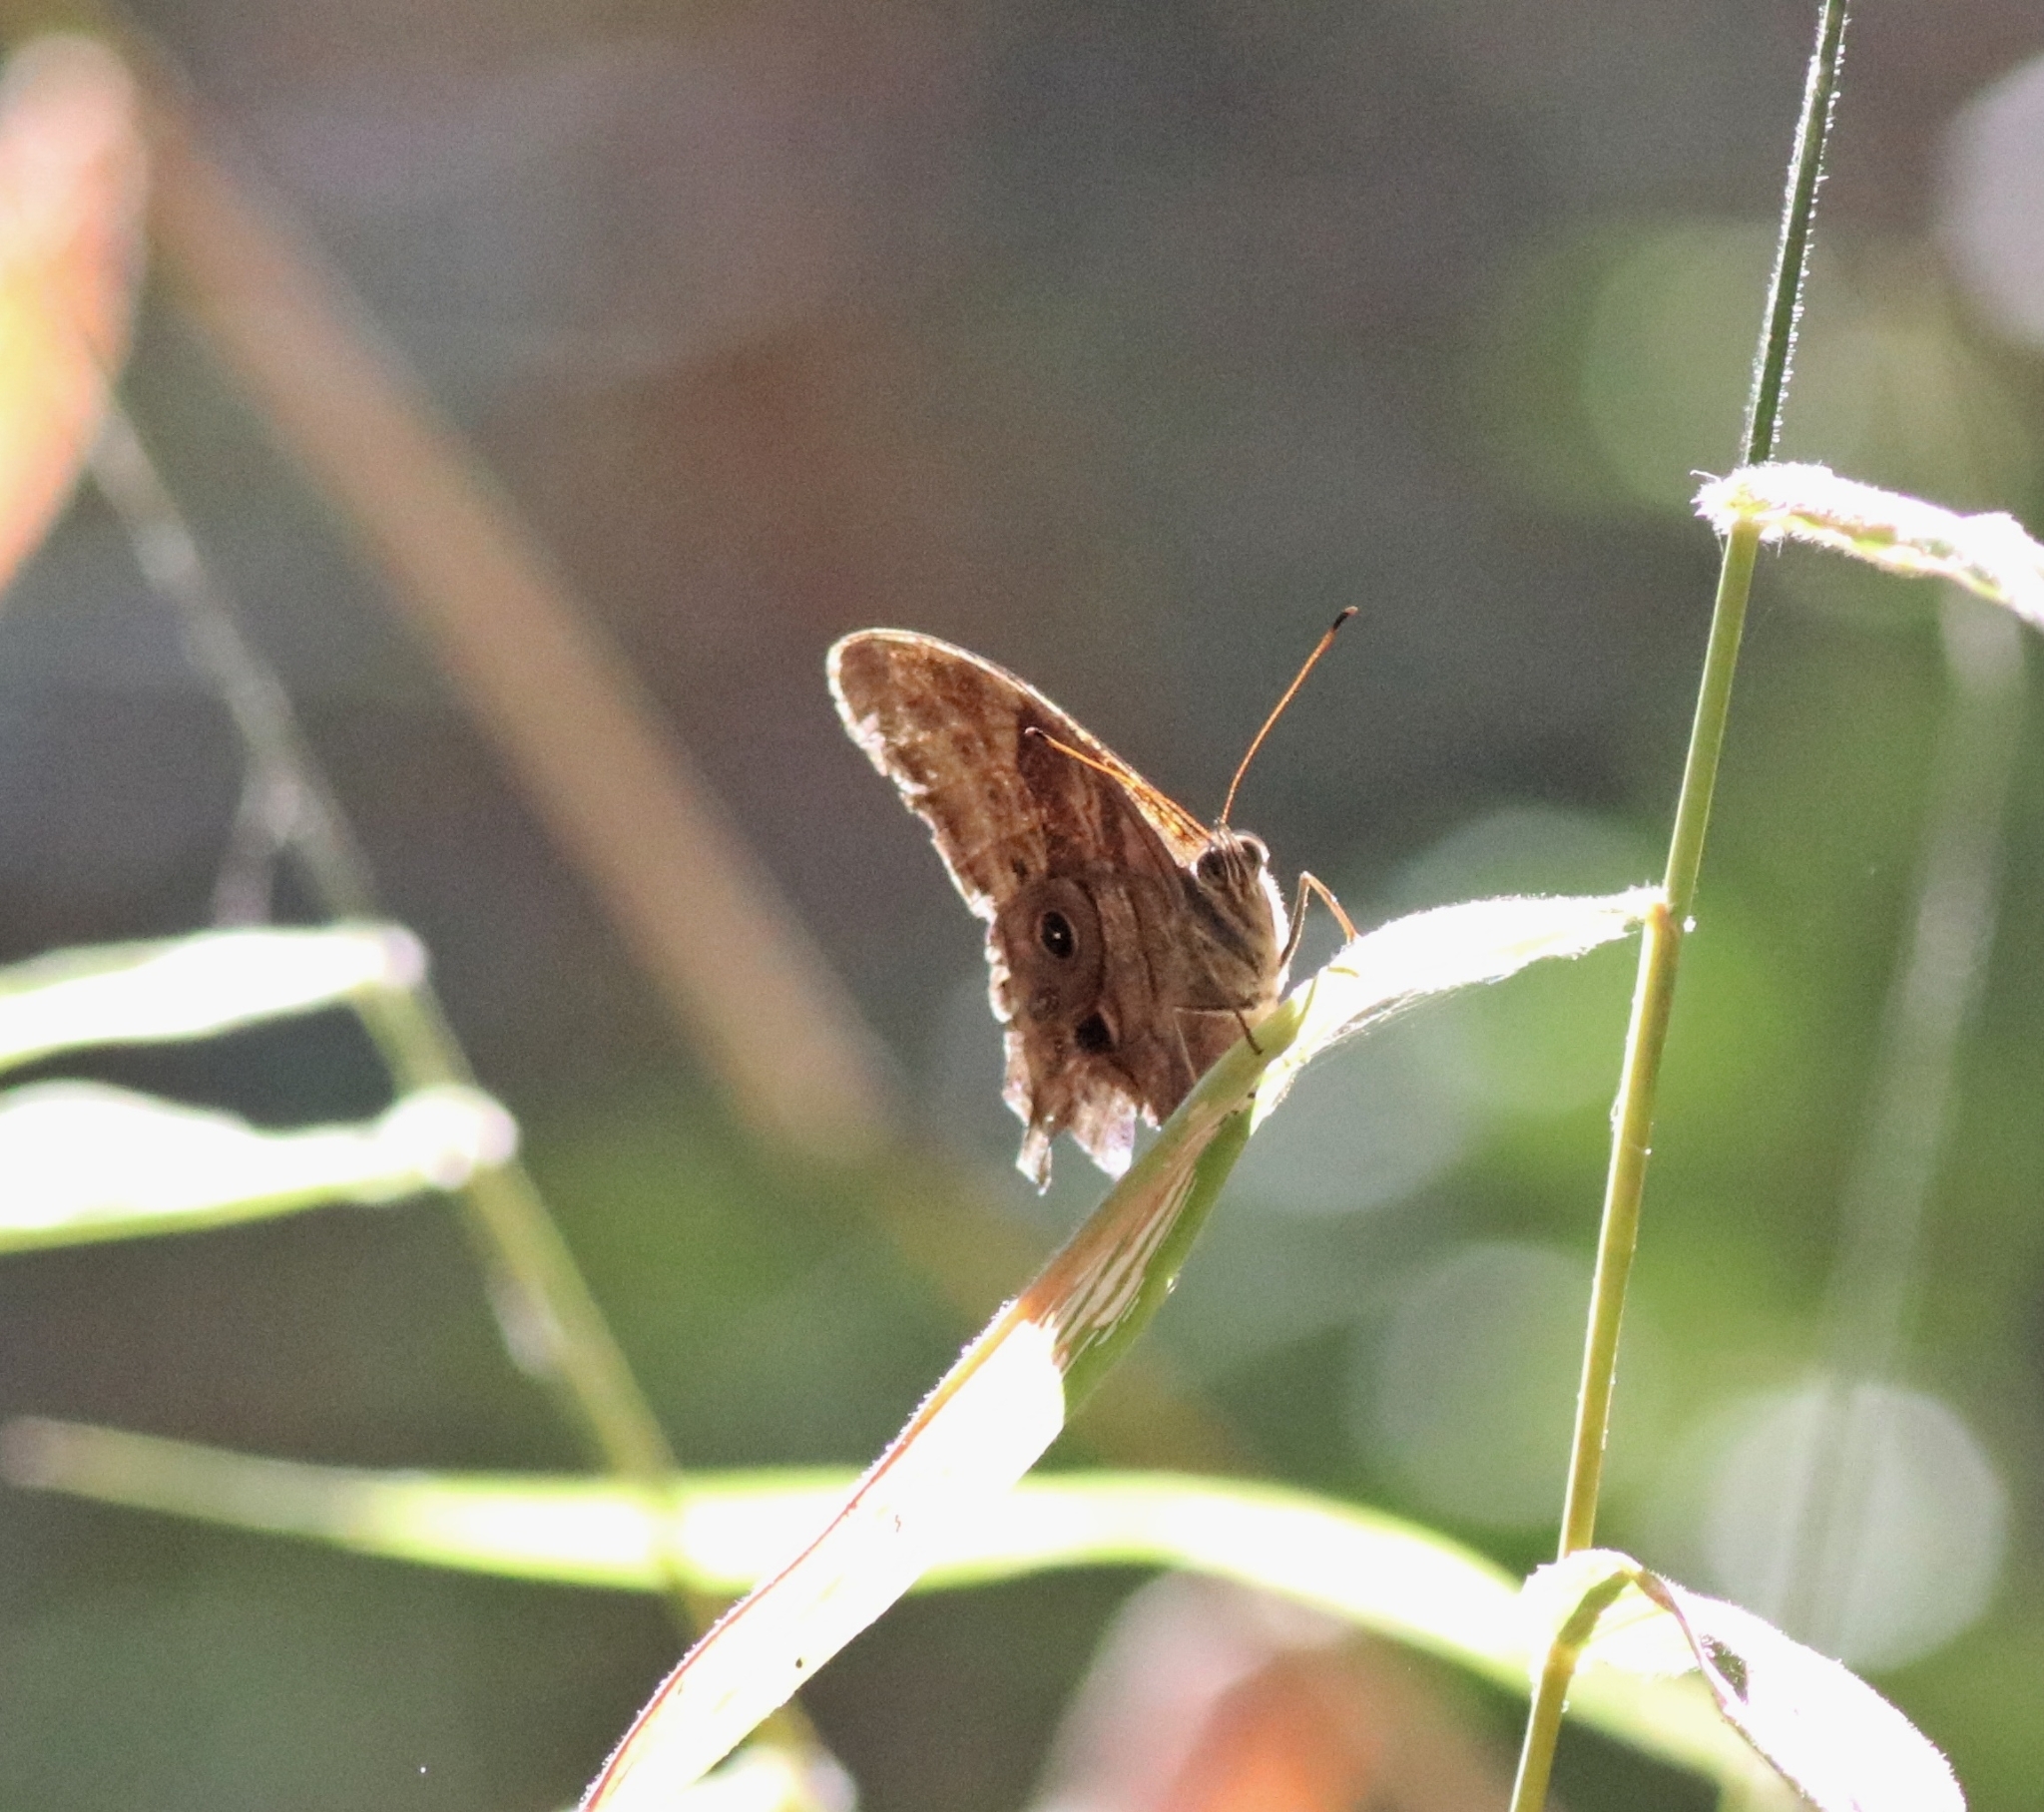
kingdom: Animalia
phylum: Arthropoda
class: Insecta
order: Lepidoptera
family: Nymphalidae
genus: Lethe
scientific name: Lethe drypetis
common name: Tamil treebrown
